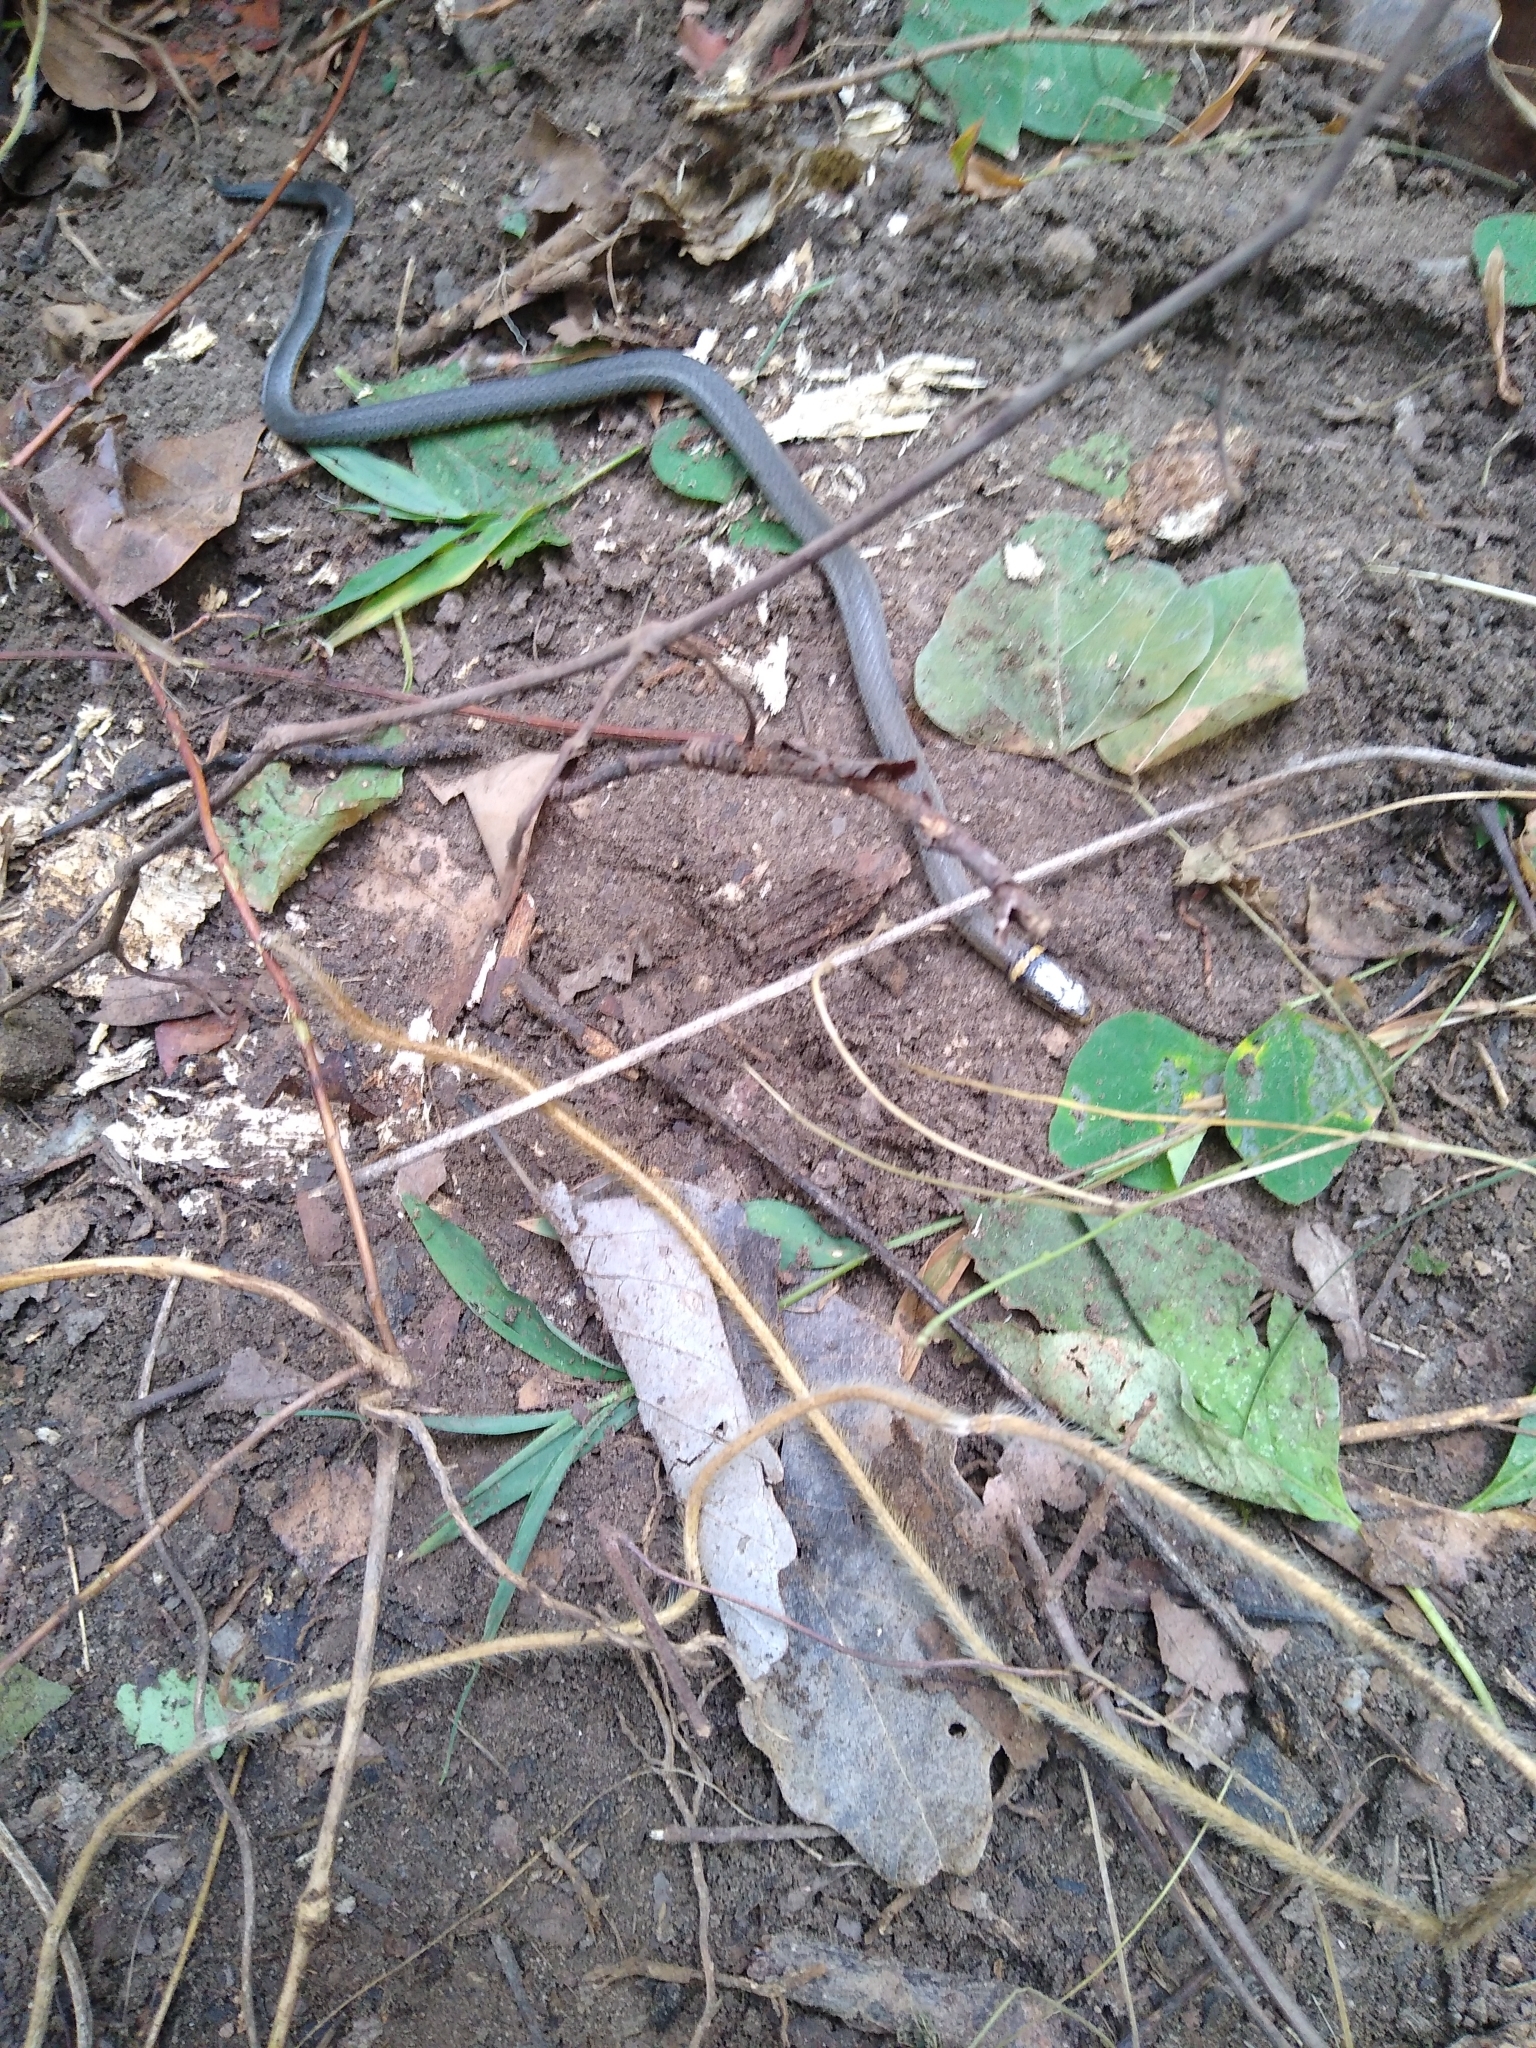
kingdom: Animalia
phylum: Chordata
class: Squamata
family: Colubridae
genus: Diadophis
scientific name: Diadophis punctatus
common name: Ringneck snake
